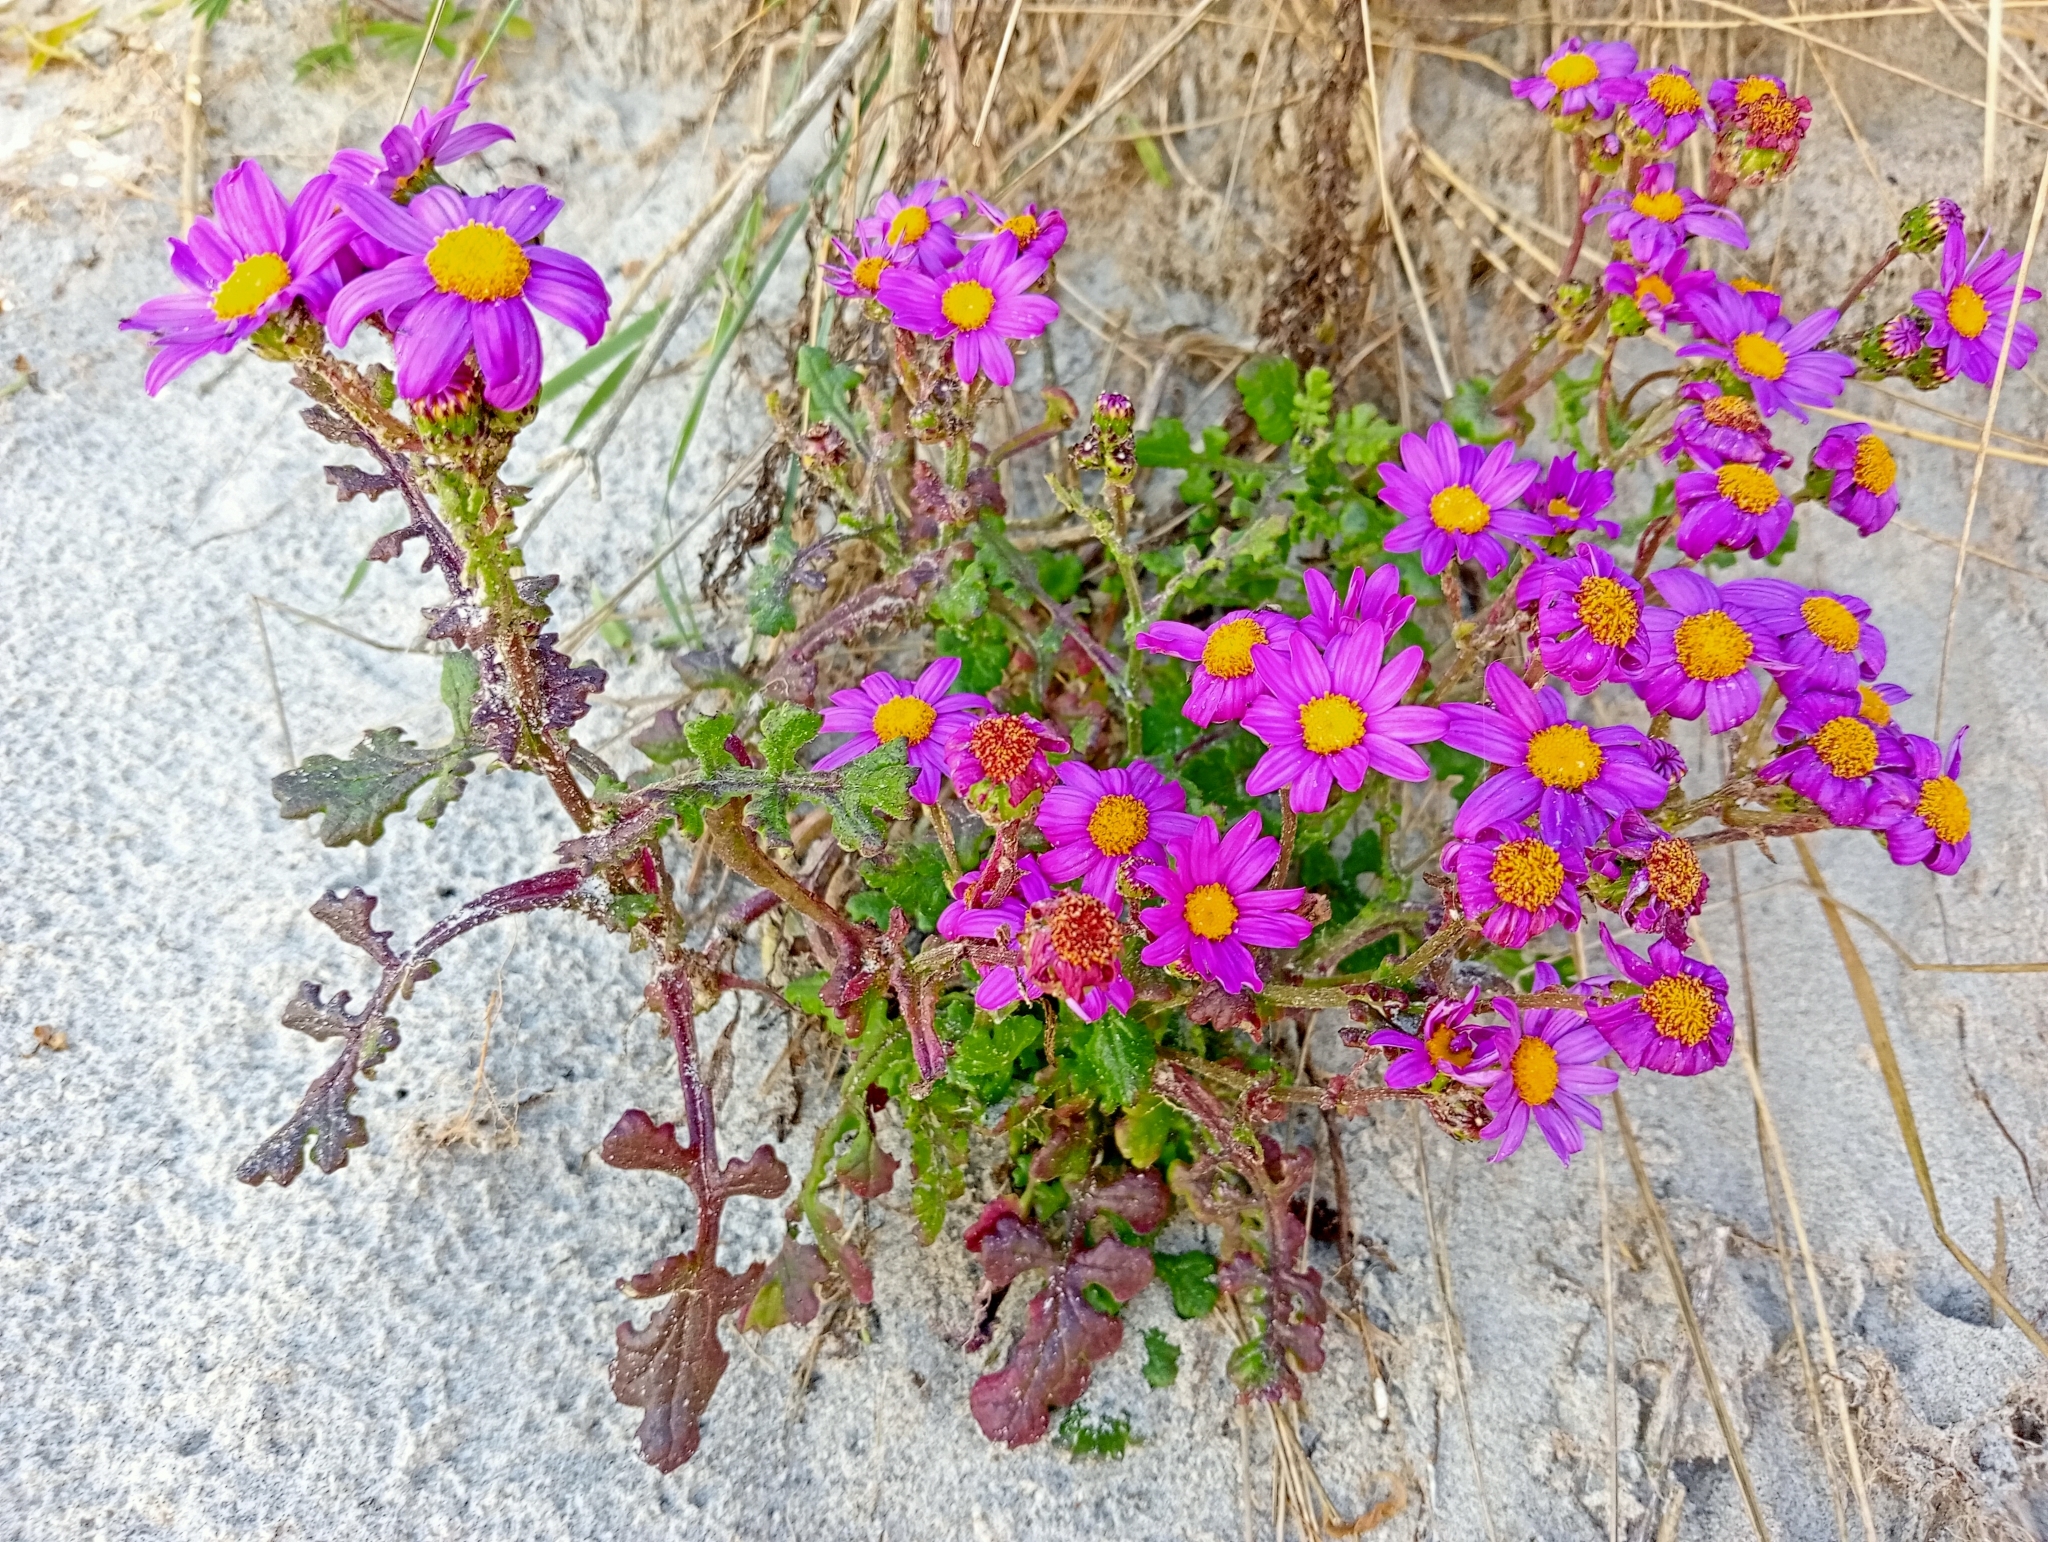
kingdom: Plantae
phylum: Tracheophyta
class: Magnoliopsida
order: Asterales
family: Asteraceae
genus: Senecio
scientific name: Senecio elegans
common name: Purple groundsel
